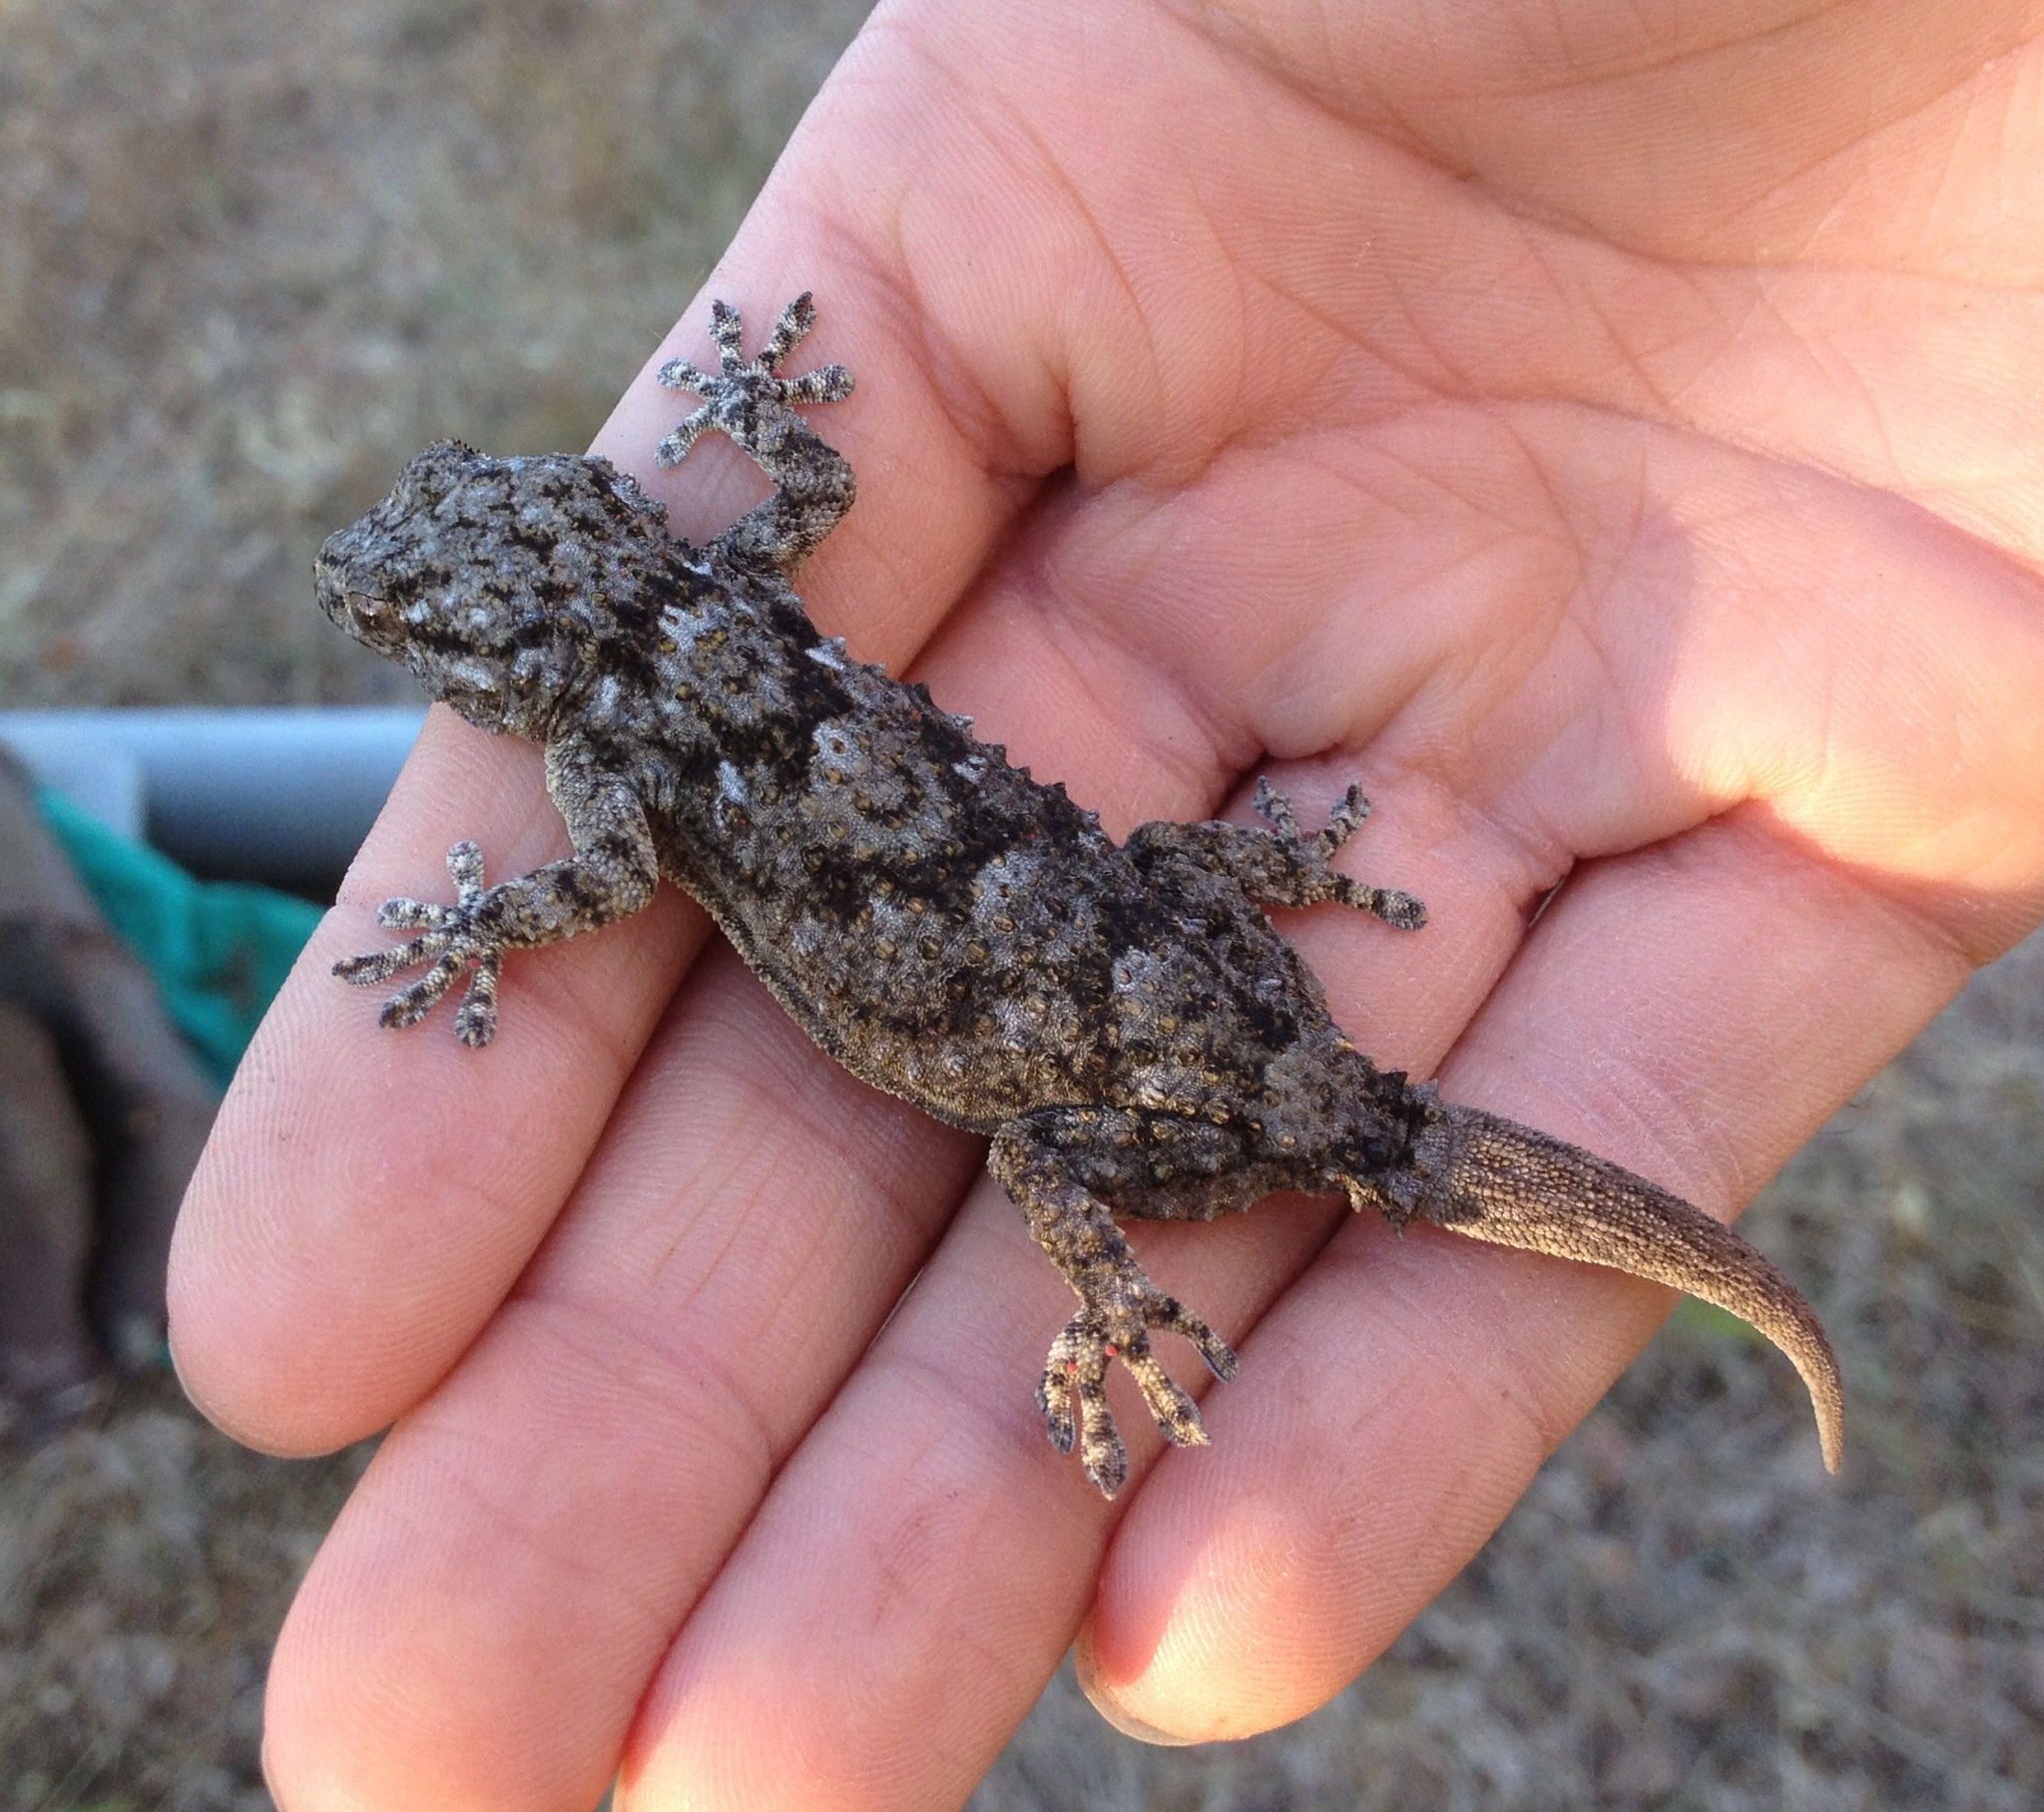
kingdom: Animalia
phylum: Chordata
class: Squamata
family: Phyllodactylidae
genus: Tarentola
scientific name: Tarentola mauritanica
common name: Moorish gecko
